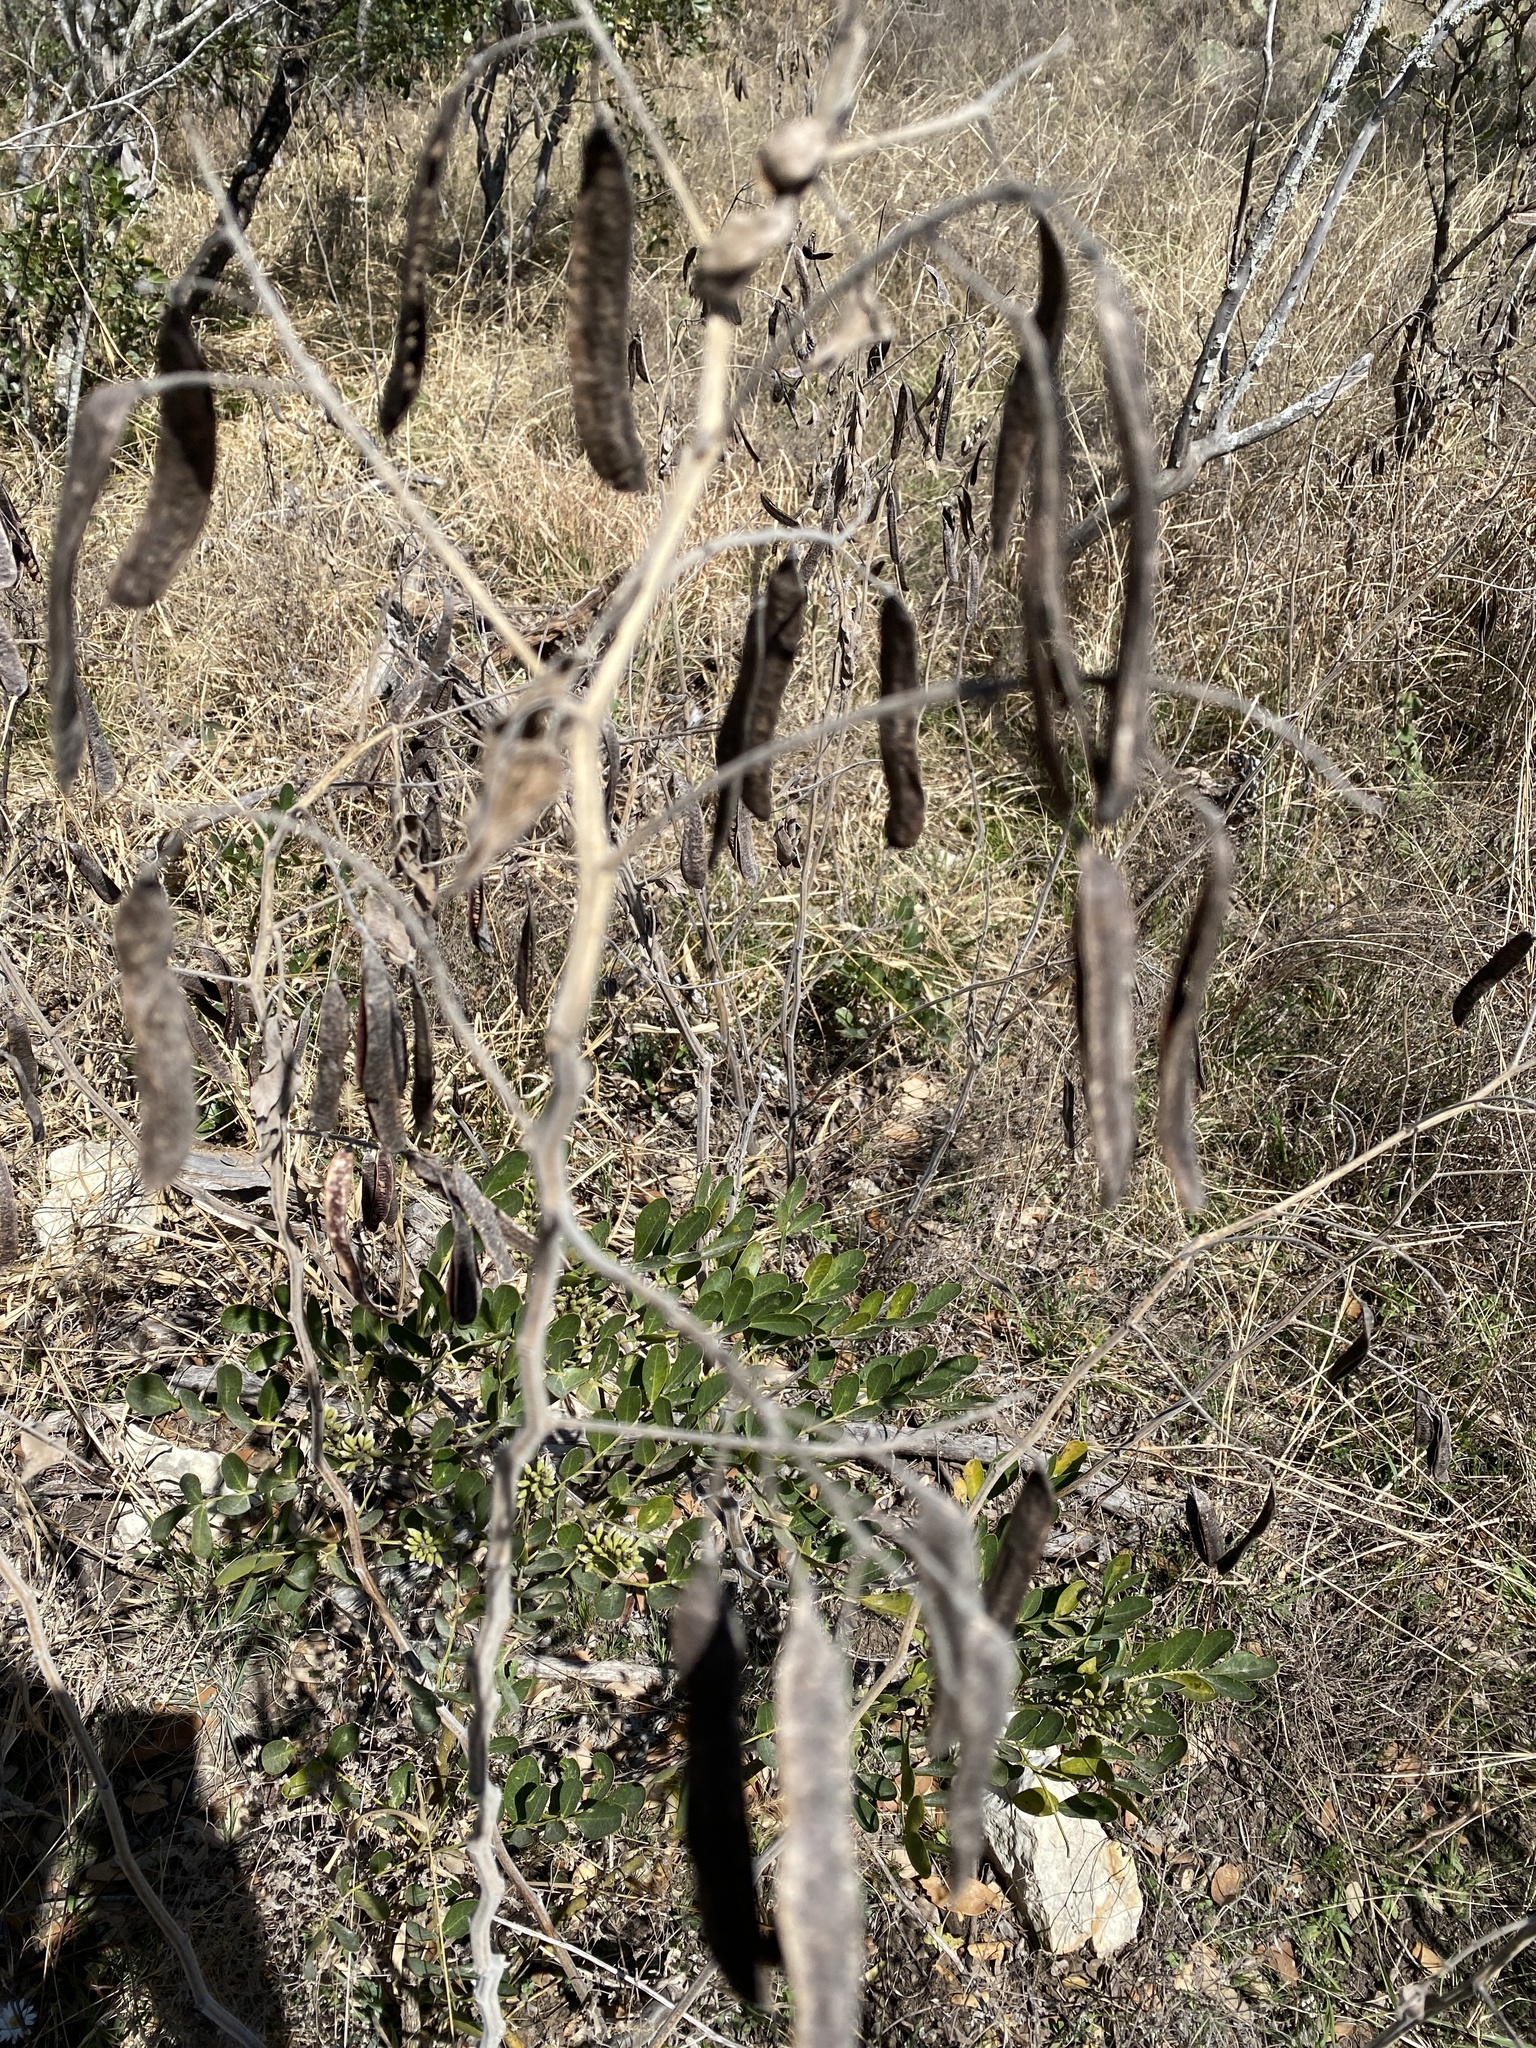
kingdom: Plantae
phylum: Tracheophyta
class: Magnoliopsida
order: Fabales
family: Fabaceae
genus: Senna
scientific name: Senna lindheimeriana
